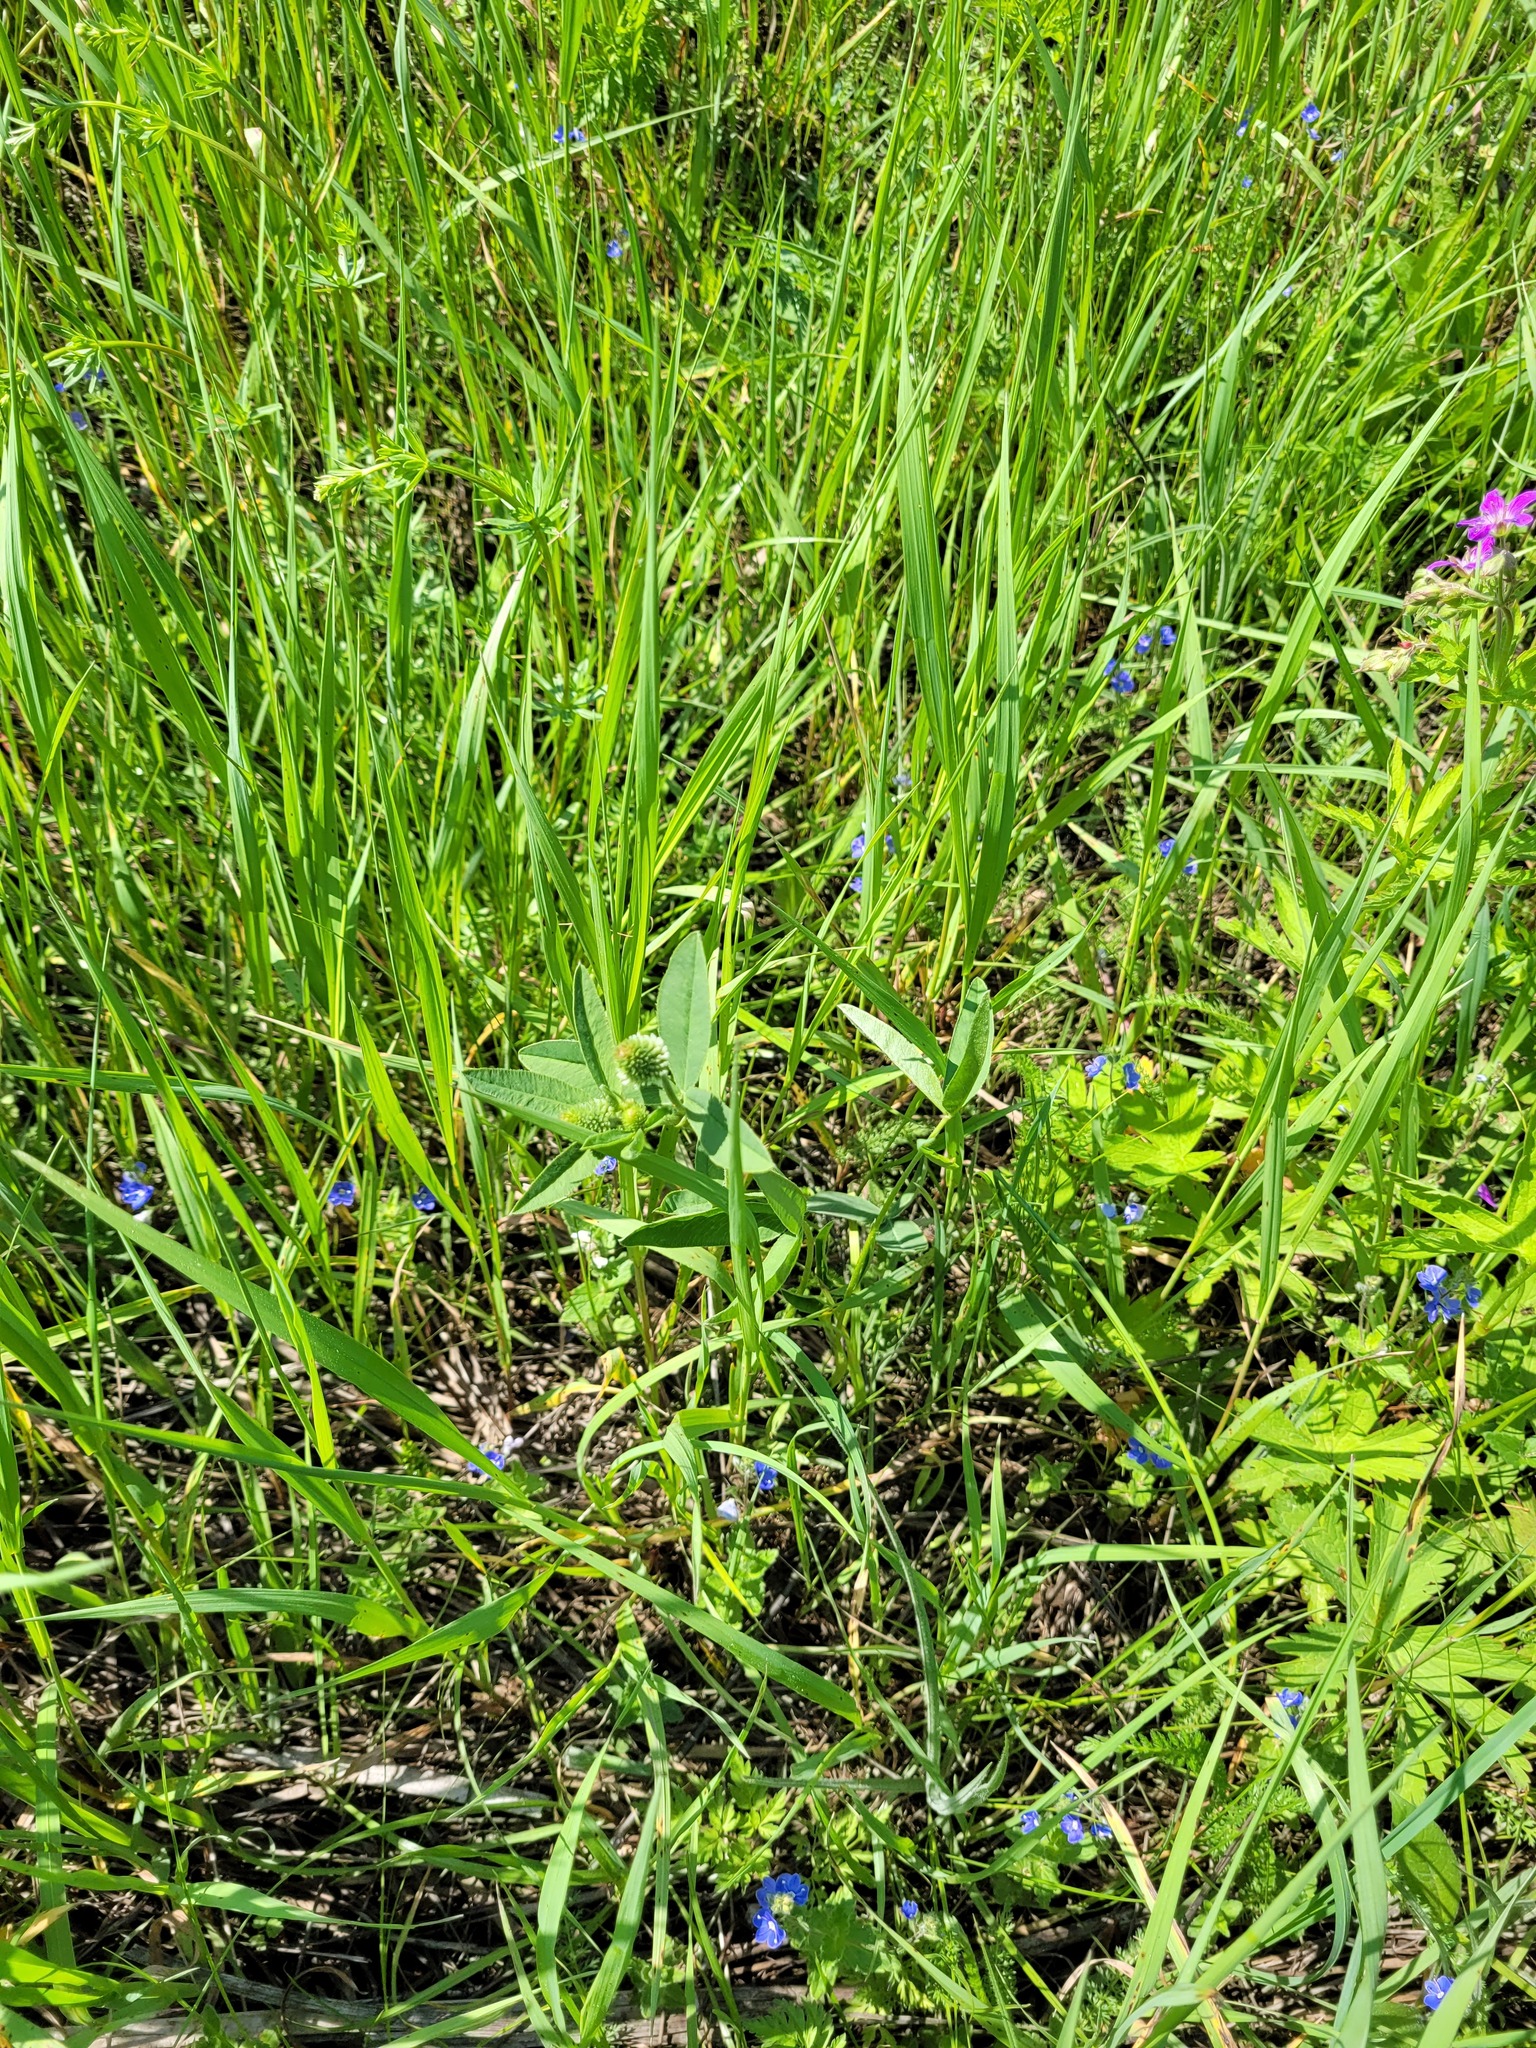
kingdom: Plantae
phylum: Tracheophyta
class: Magnoliopsida
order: Fabales
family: Fabaceae
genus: Trifolium
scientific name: Trifolium montanum
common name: Mountain clover
